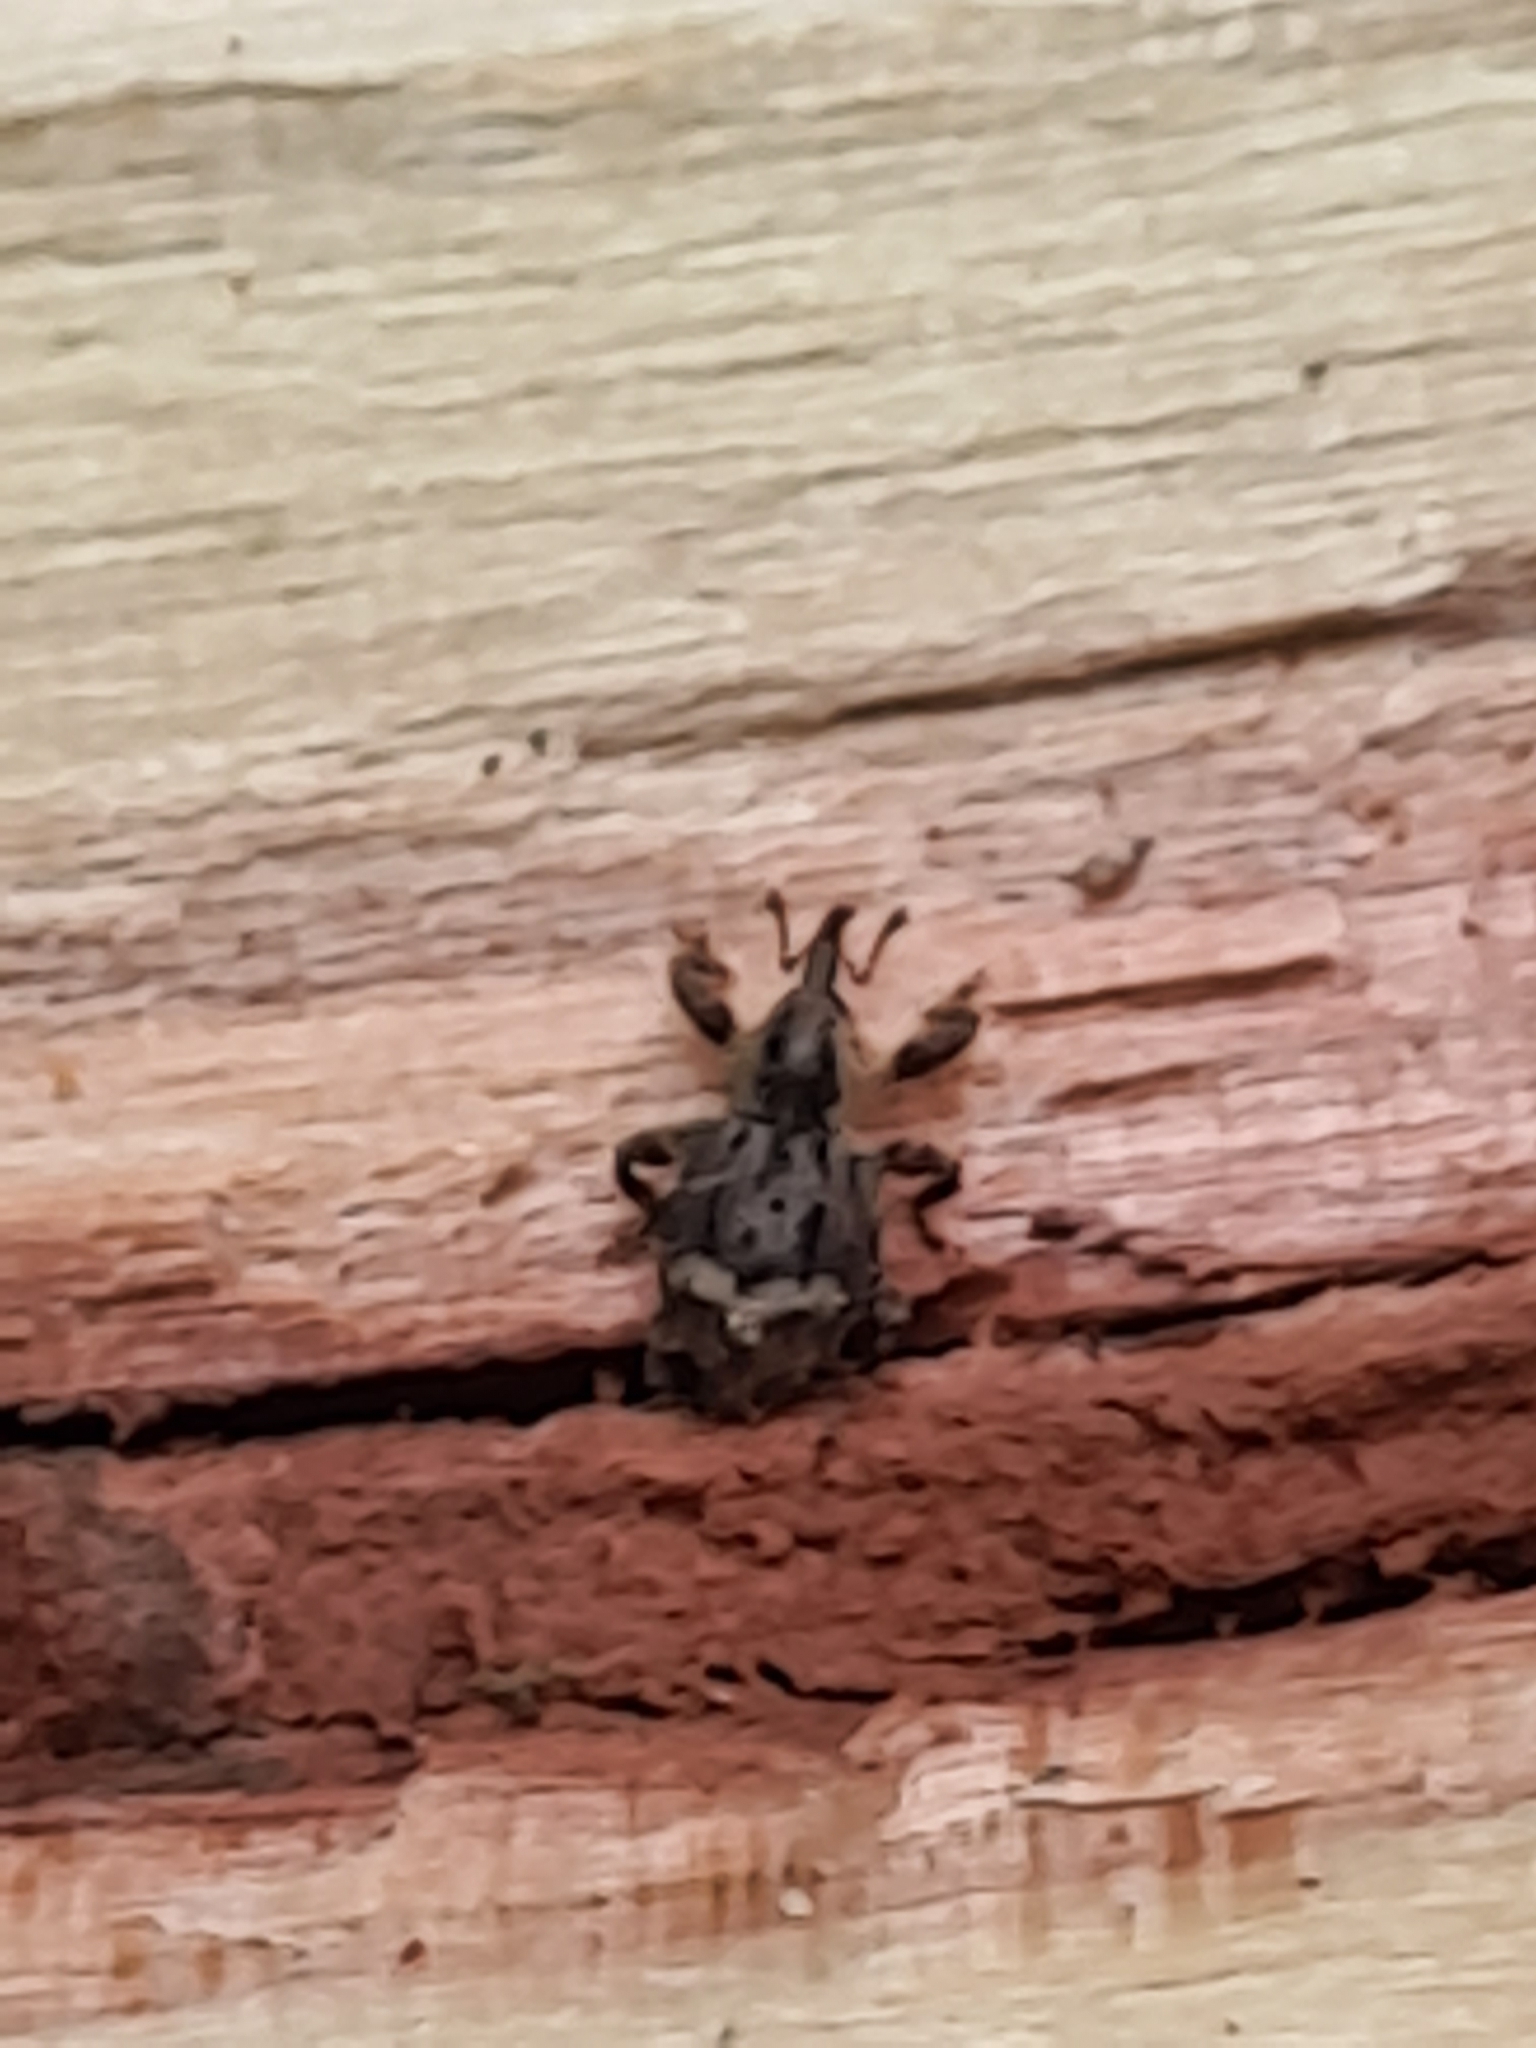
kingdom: Animalia
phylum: Arthropoda
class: Insecta
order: Coleoptera
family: Curculionidae
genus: Trachodes
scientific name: Trachodes hispidus
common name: Weevil
